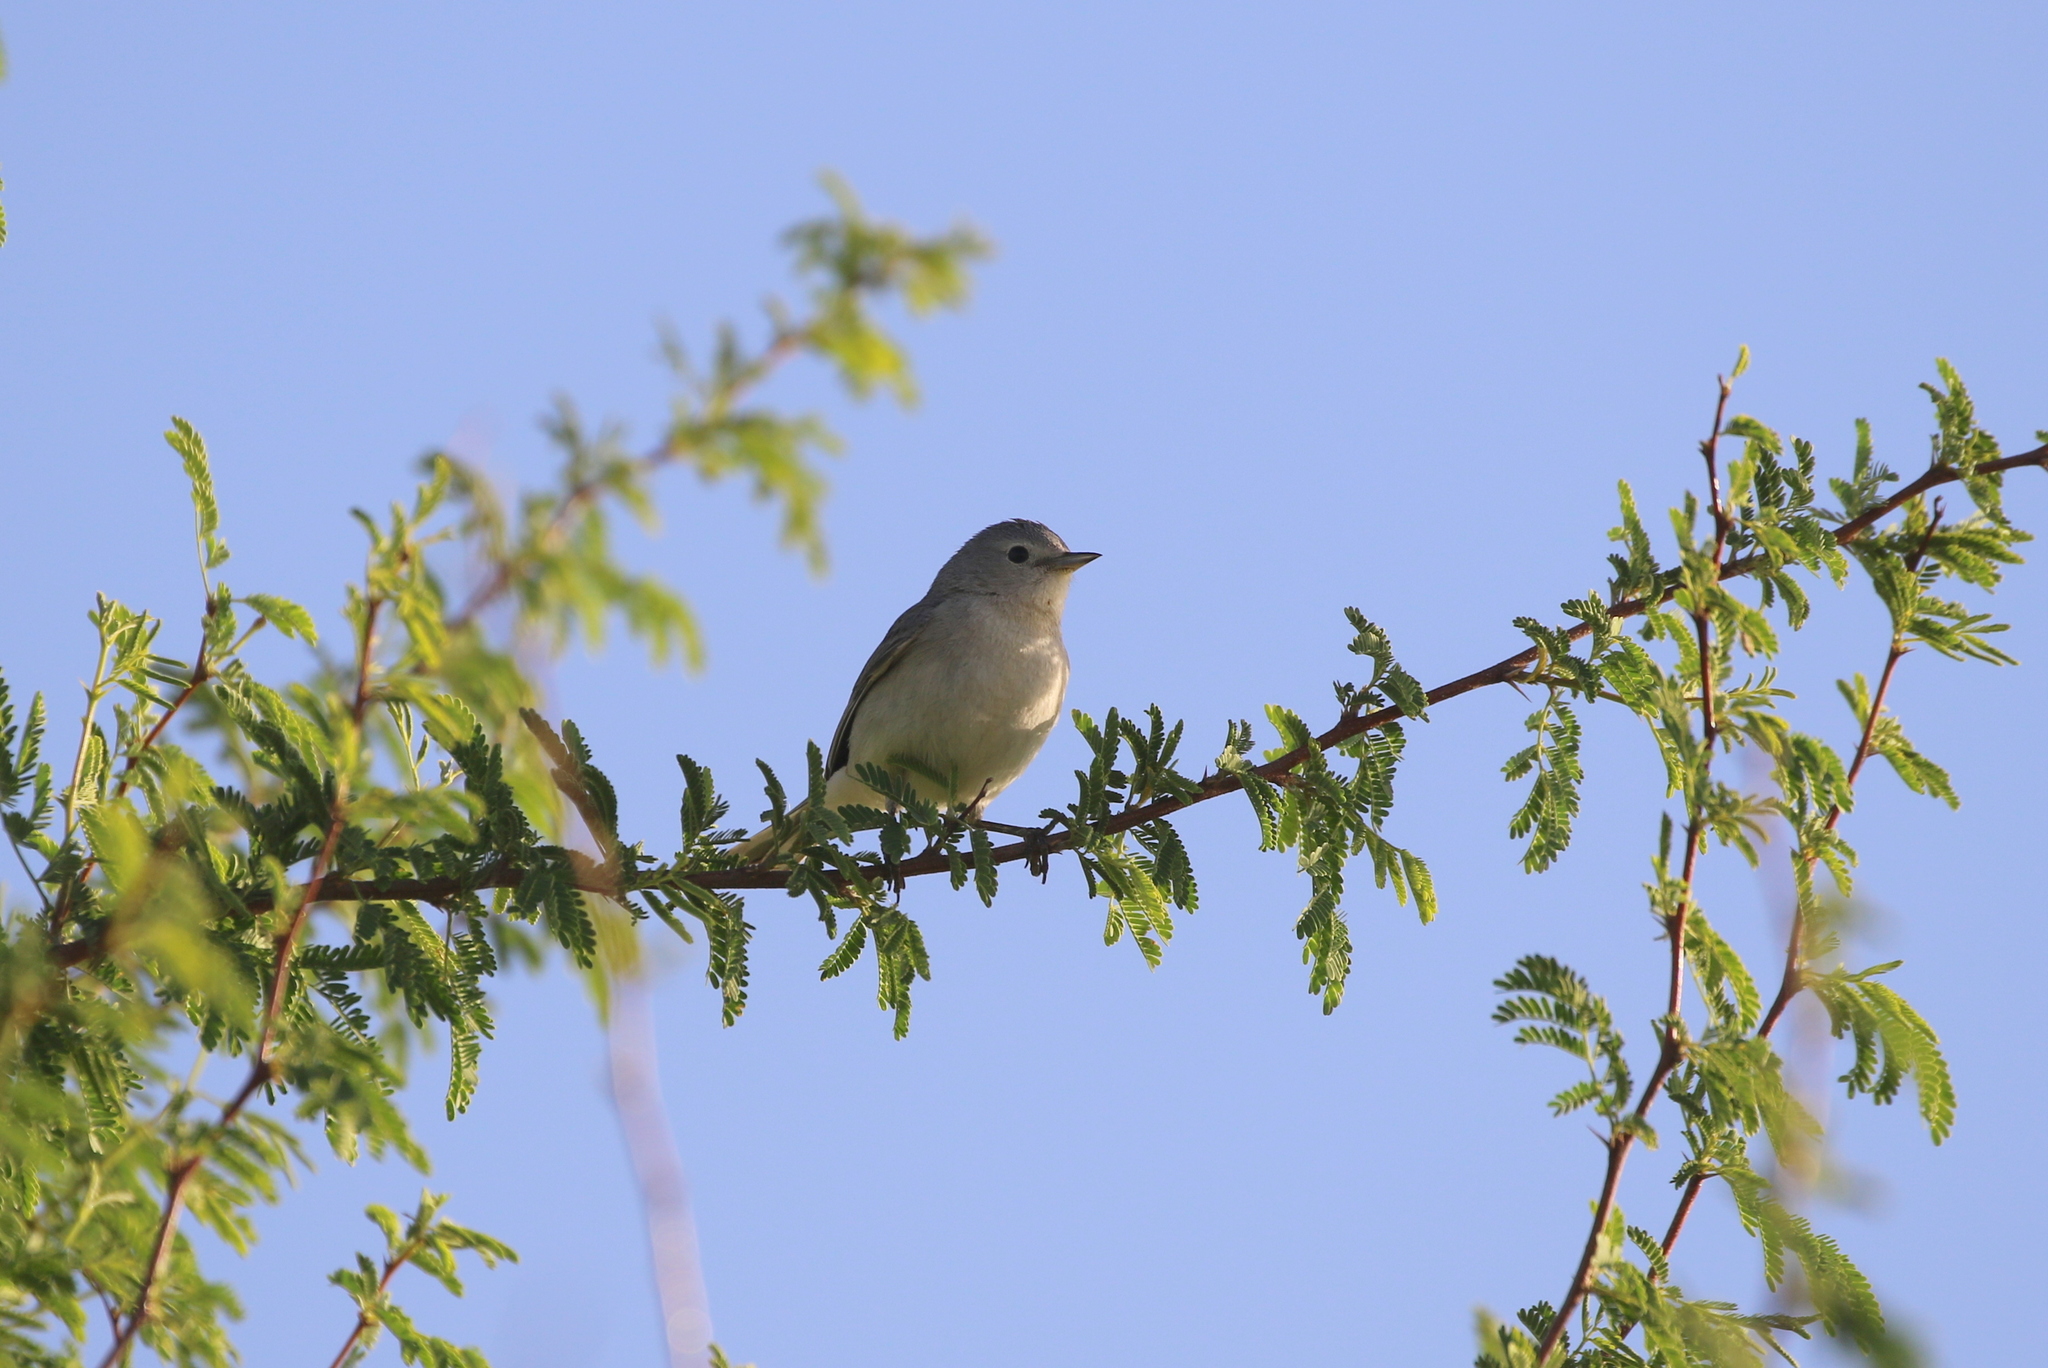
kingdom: Animalia
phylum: Chordata
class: Aves
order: Passeriformes
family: Parulidae
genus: Leiothlypis
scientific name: Leiothlypis luciae
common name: Lucy's warbler
